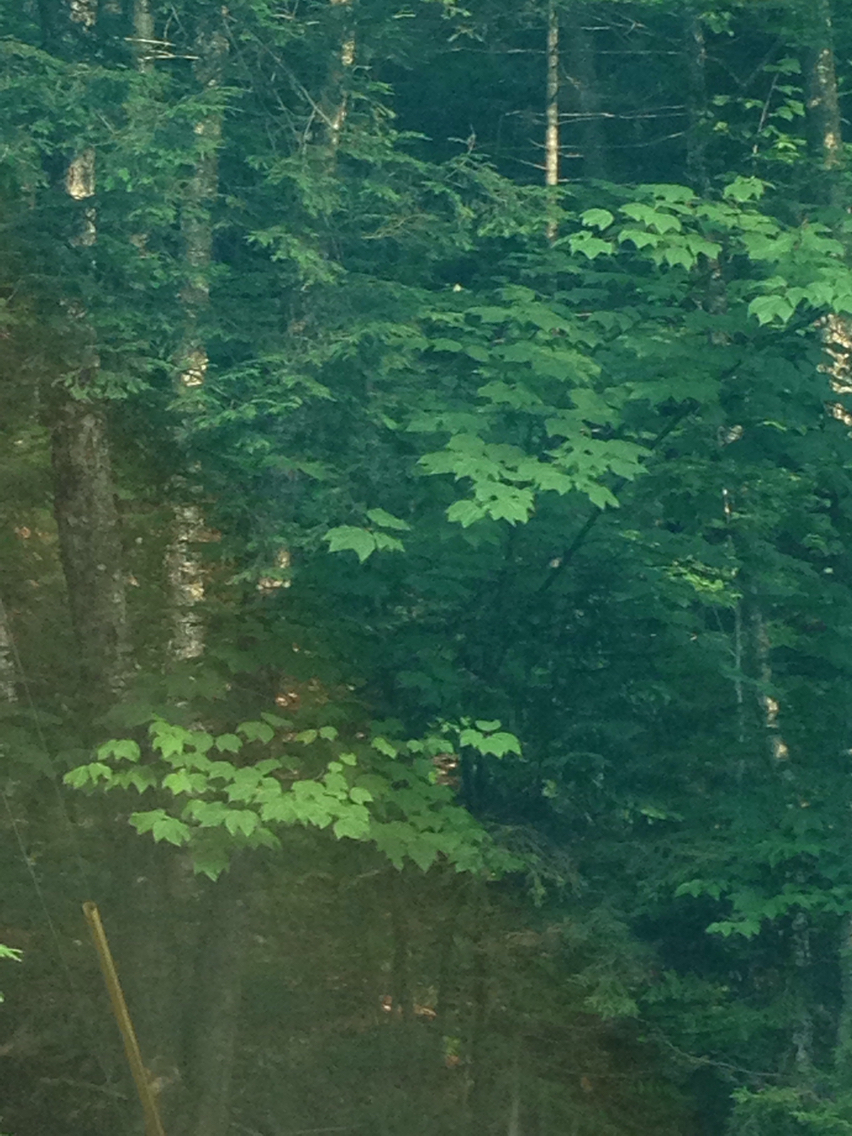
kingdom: Plantae
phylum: Tracheophyta
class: Magnoliopsida
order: Sapindales
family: Sapindaceae
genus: Acer
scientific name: Acer pensylvanicum
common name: Moosewood
